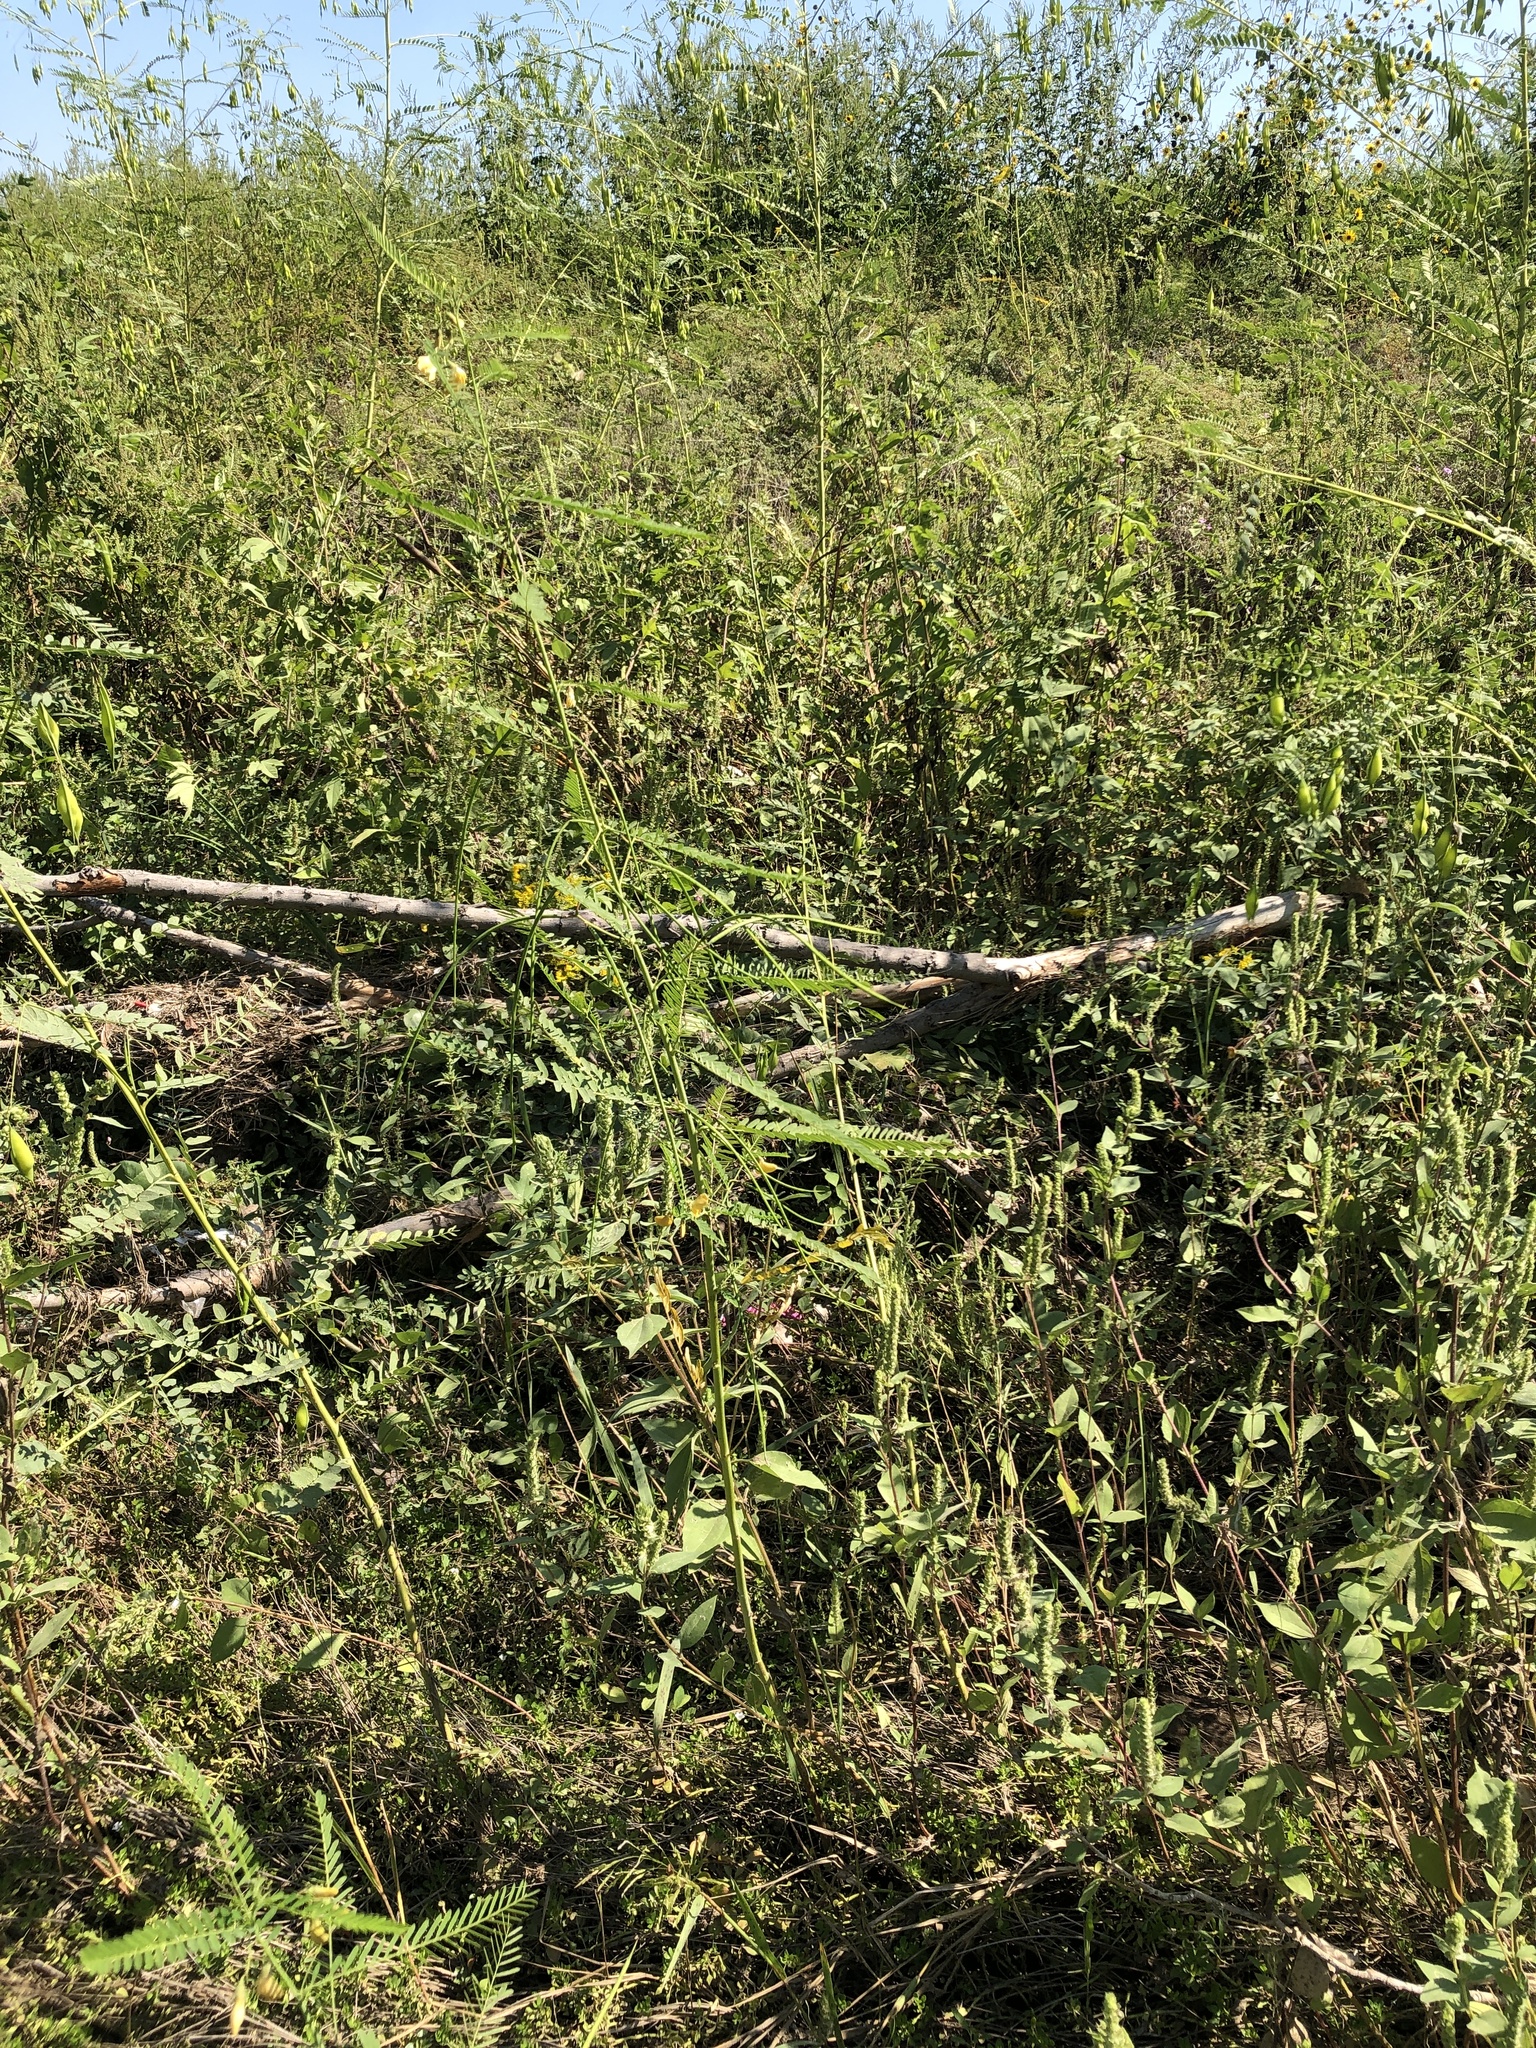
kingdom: Plantae
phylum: Tracheophyta
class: Magnoliopsida
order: Fabales
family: Fabaceae
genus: Sesbania
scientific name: Sesbania herbacea
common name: Bigpod sesbania
